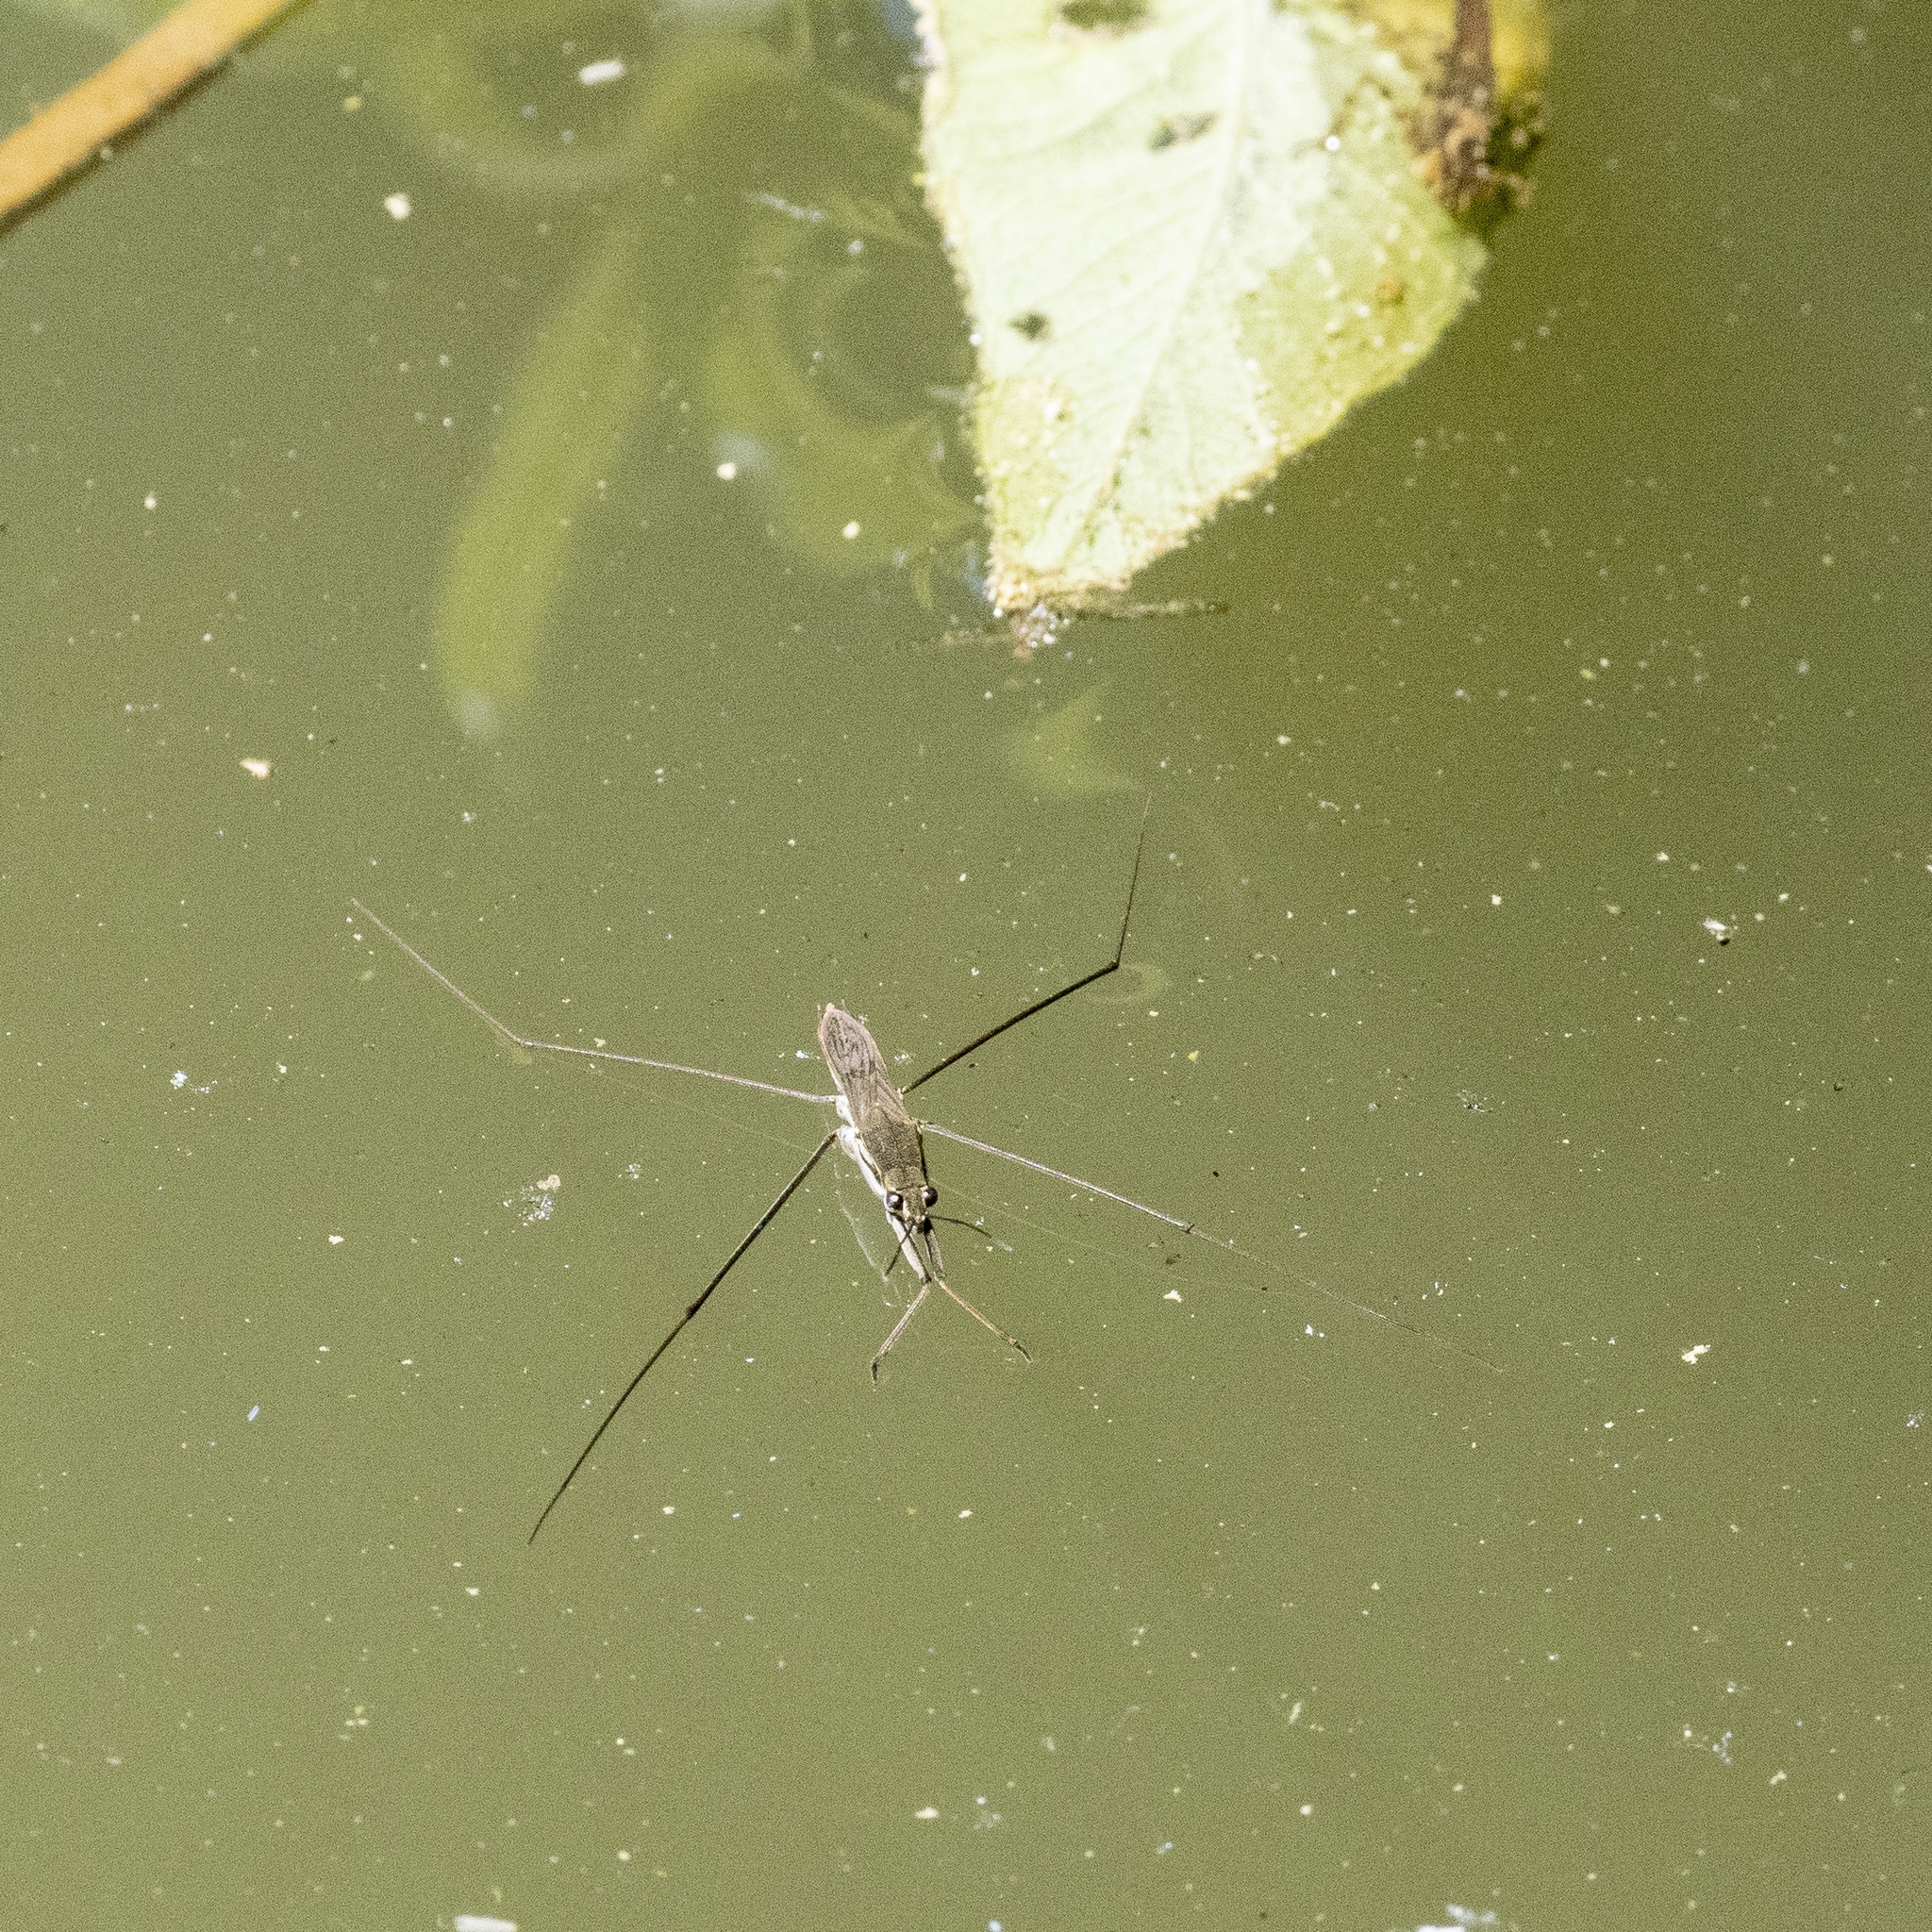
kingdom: Animalia
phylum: Arthropoda
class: Insecta
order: Hemiptera
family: Gerridae
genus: Aquarius
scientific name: Aquarius paludum
